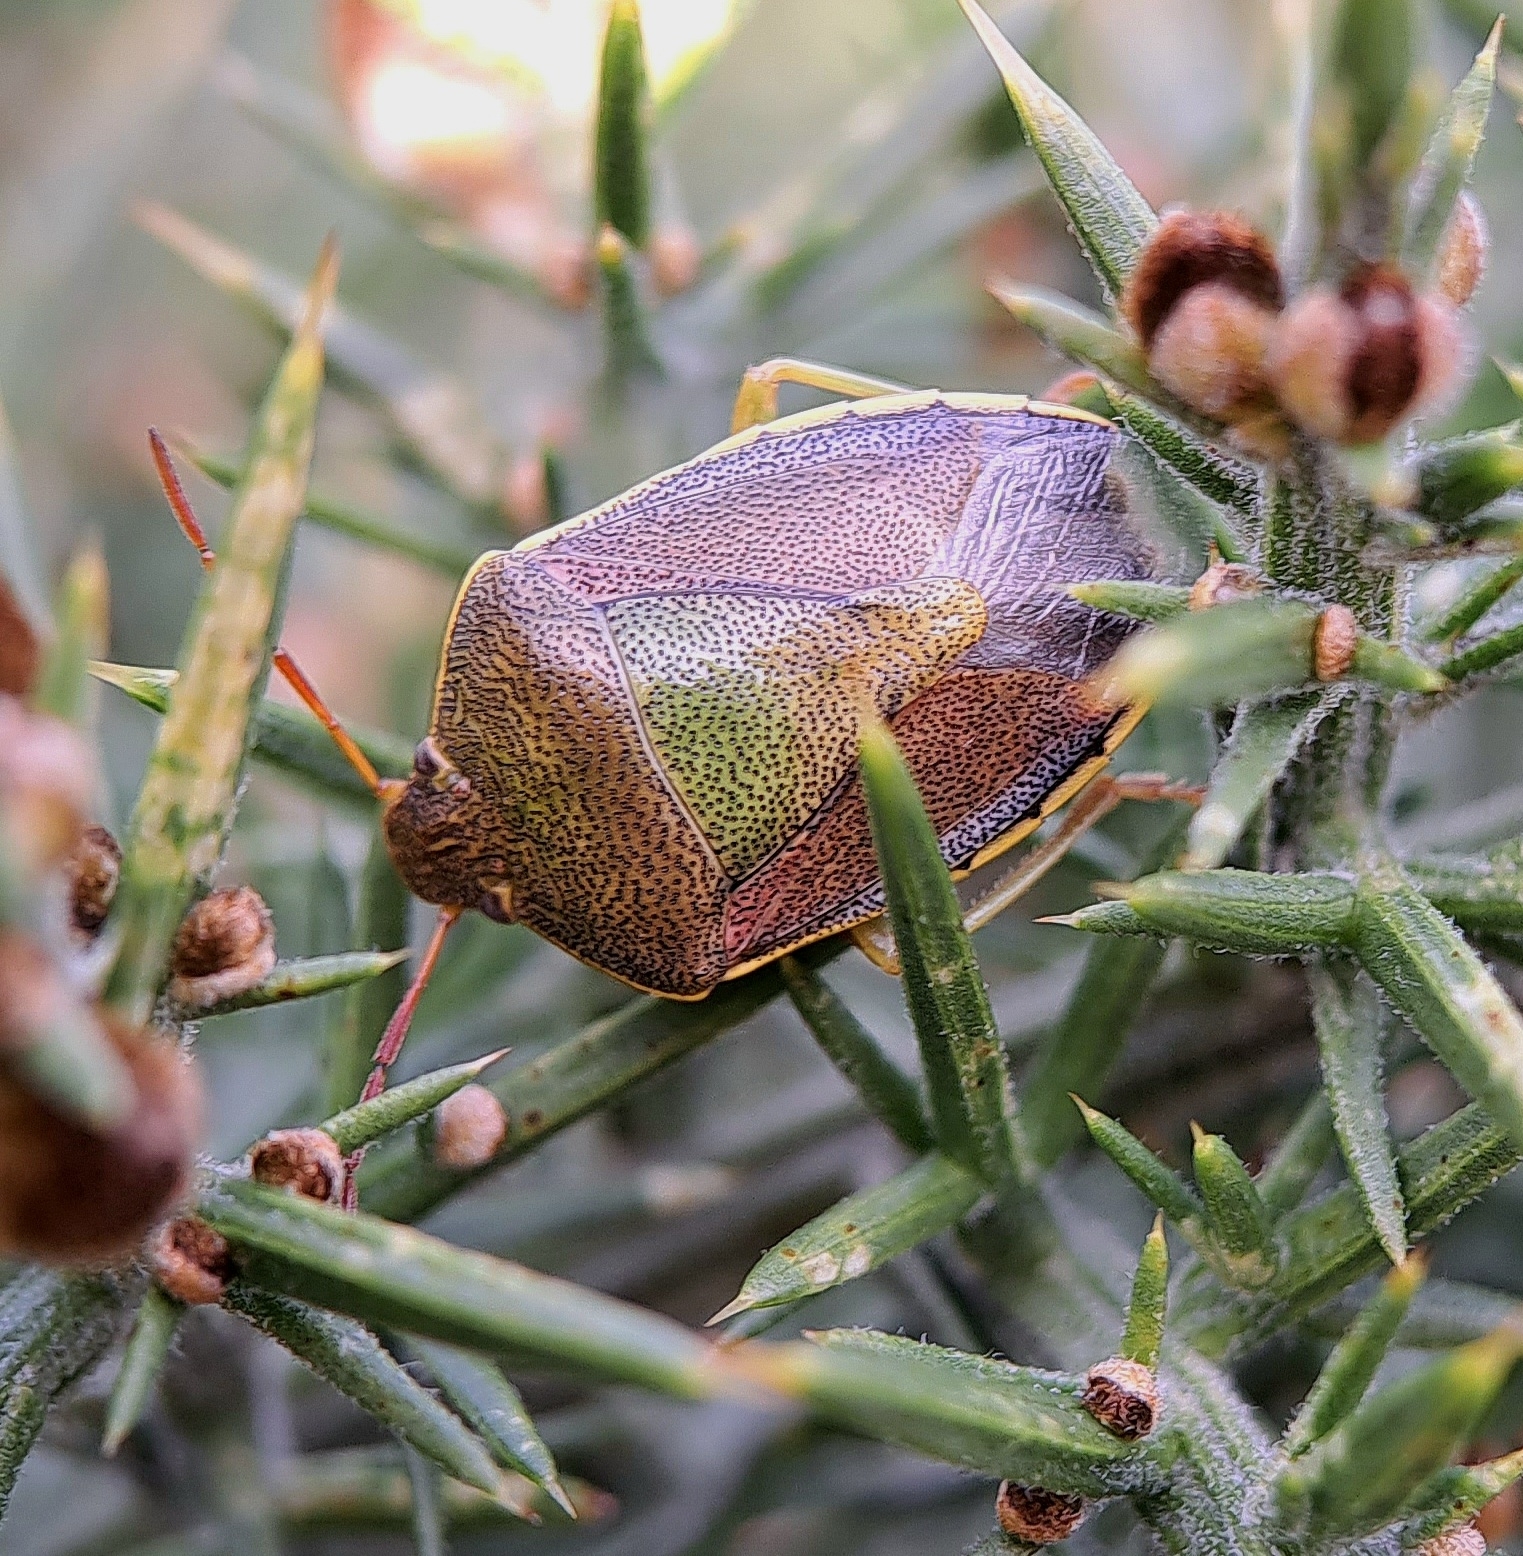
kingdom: Animalia
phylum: Arthropoda
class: Insecta
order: Hemiptera
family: Pentatomidae
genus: Piezodorus
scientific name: Piezodorus lituratus
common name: Stink bug
